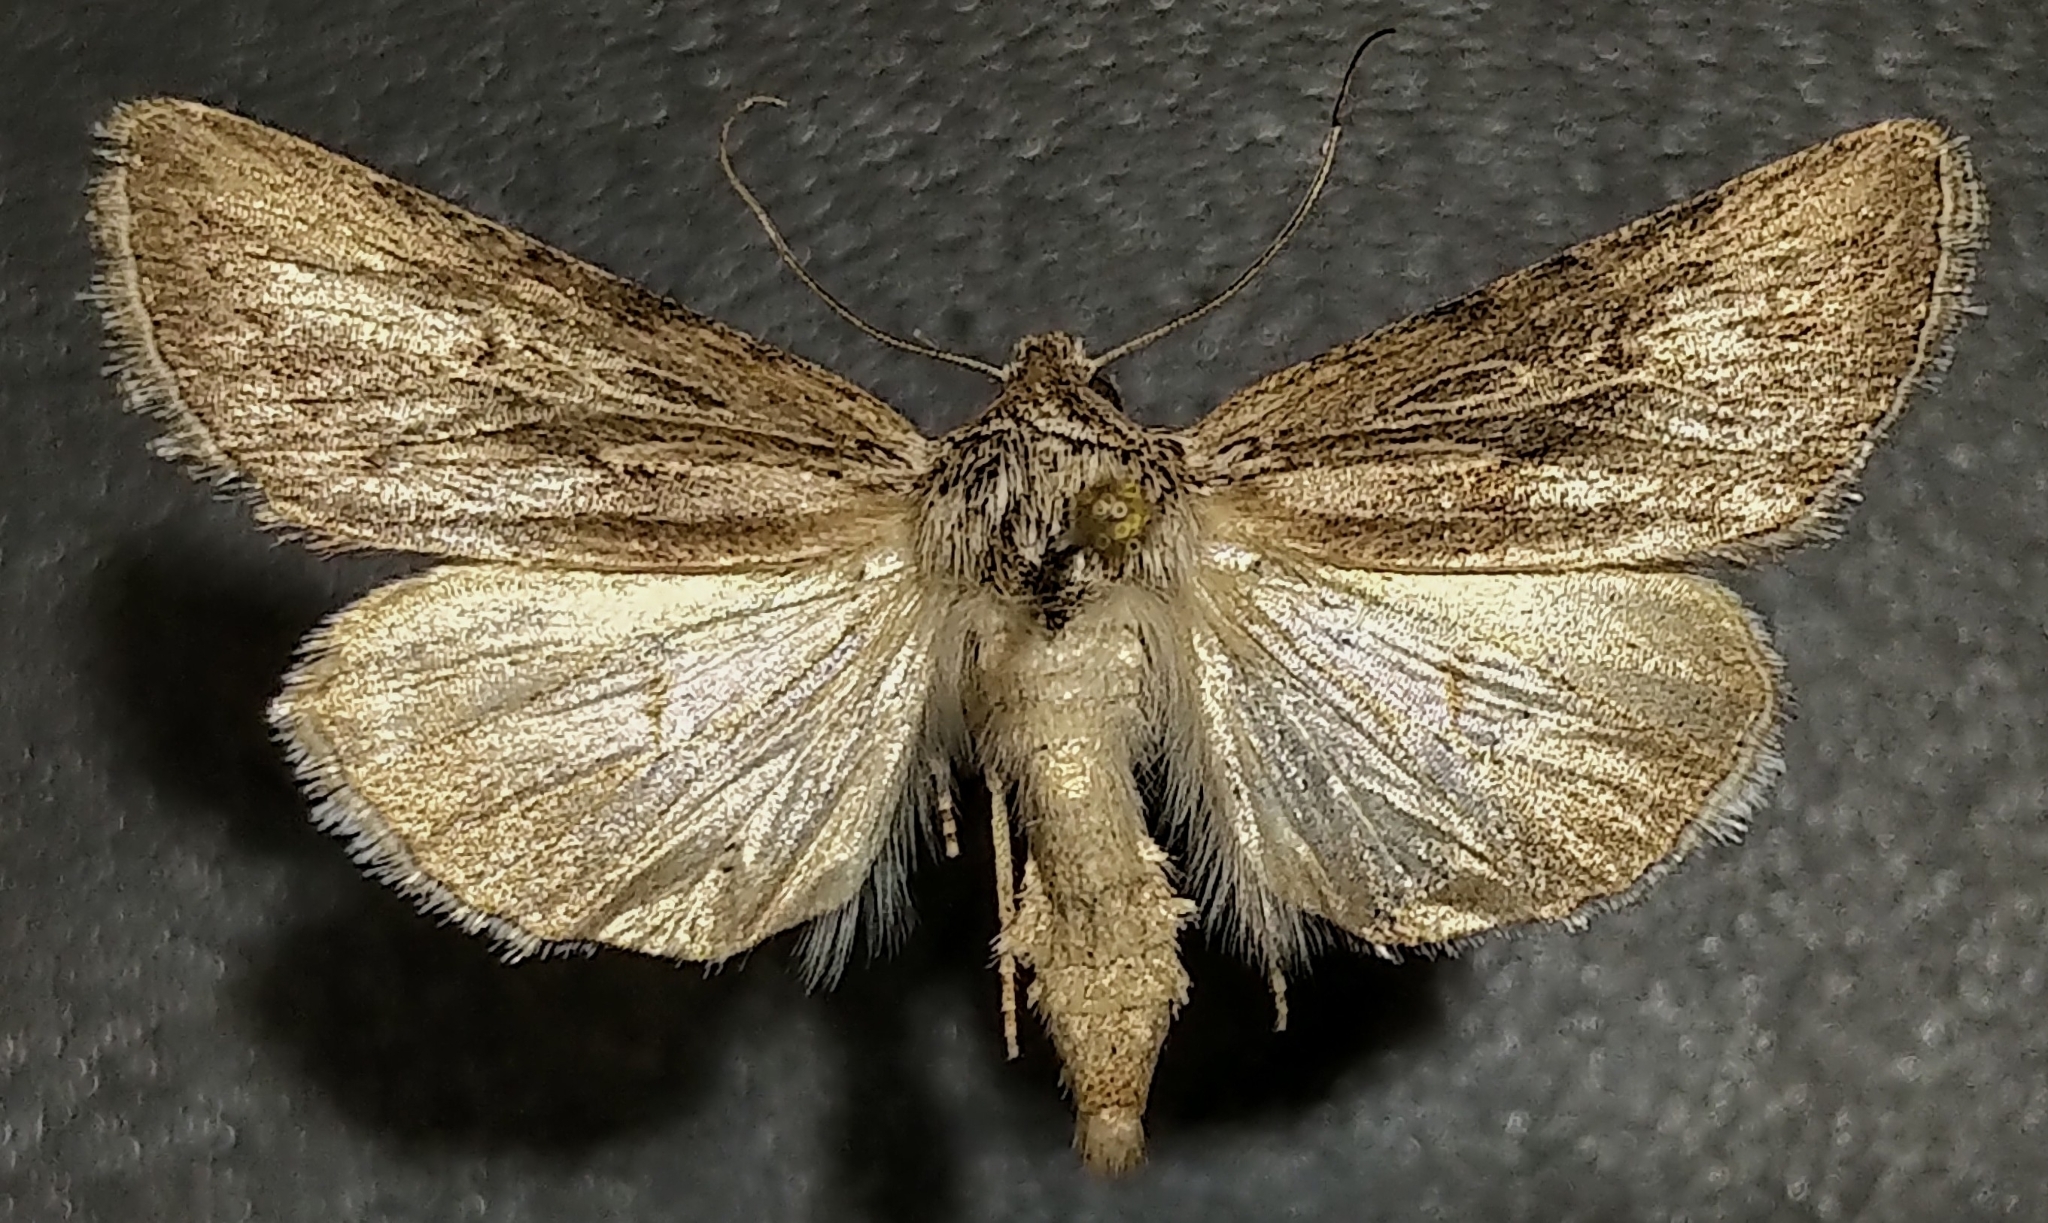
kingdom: Animalia
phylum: Arthropoda
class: Insecta
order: Lepidoptera
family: Noctuidae
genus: Sympistis
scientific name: Sympistis cibalis
